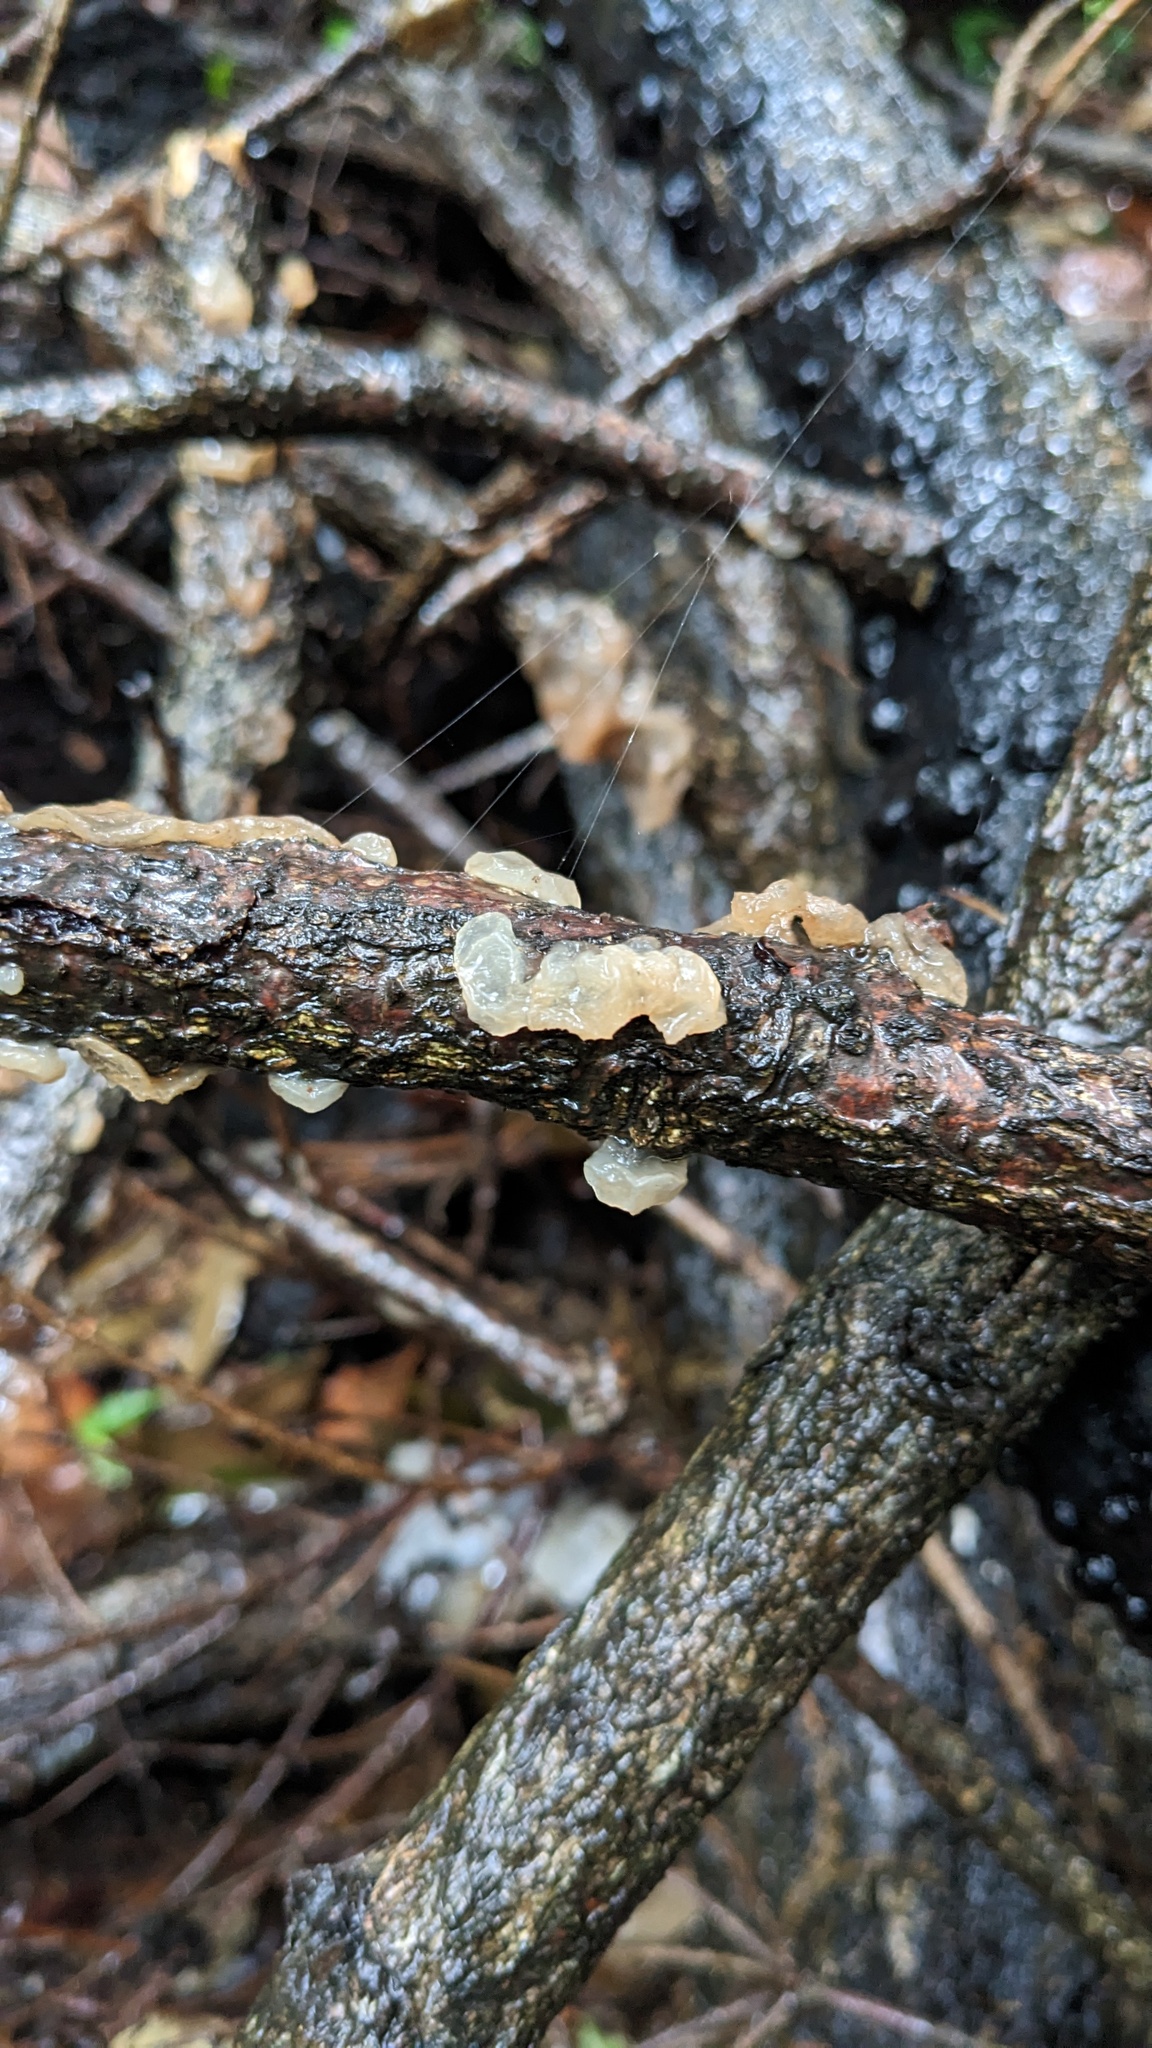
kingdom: Fungi
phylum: Basidiomycota
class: Agaricomycetes
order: Auriculariales
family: Auriculariaceae
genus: Exidia
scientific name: Exidia uvapassa
